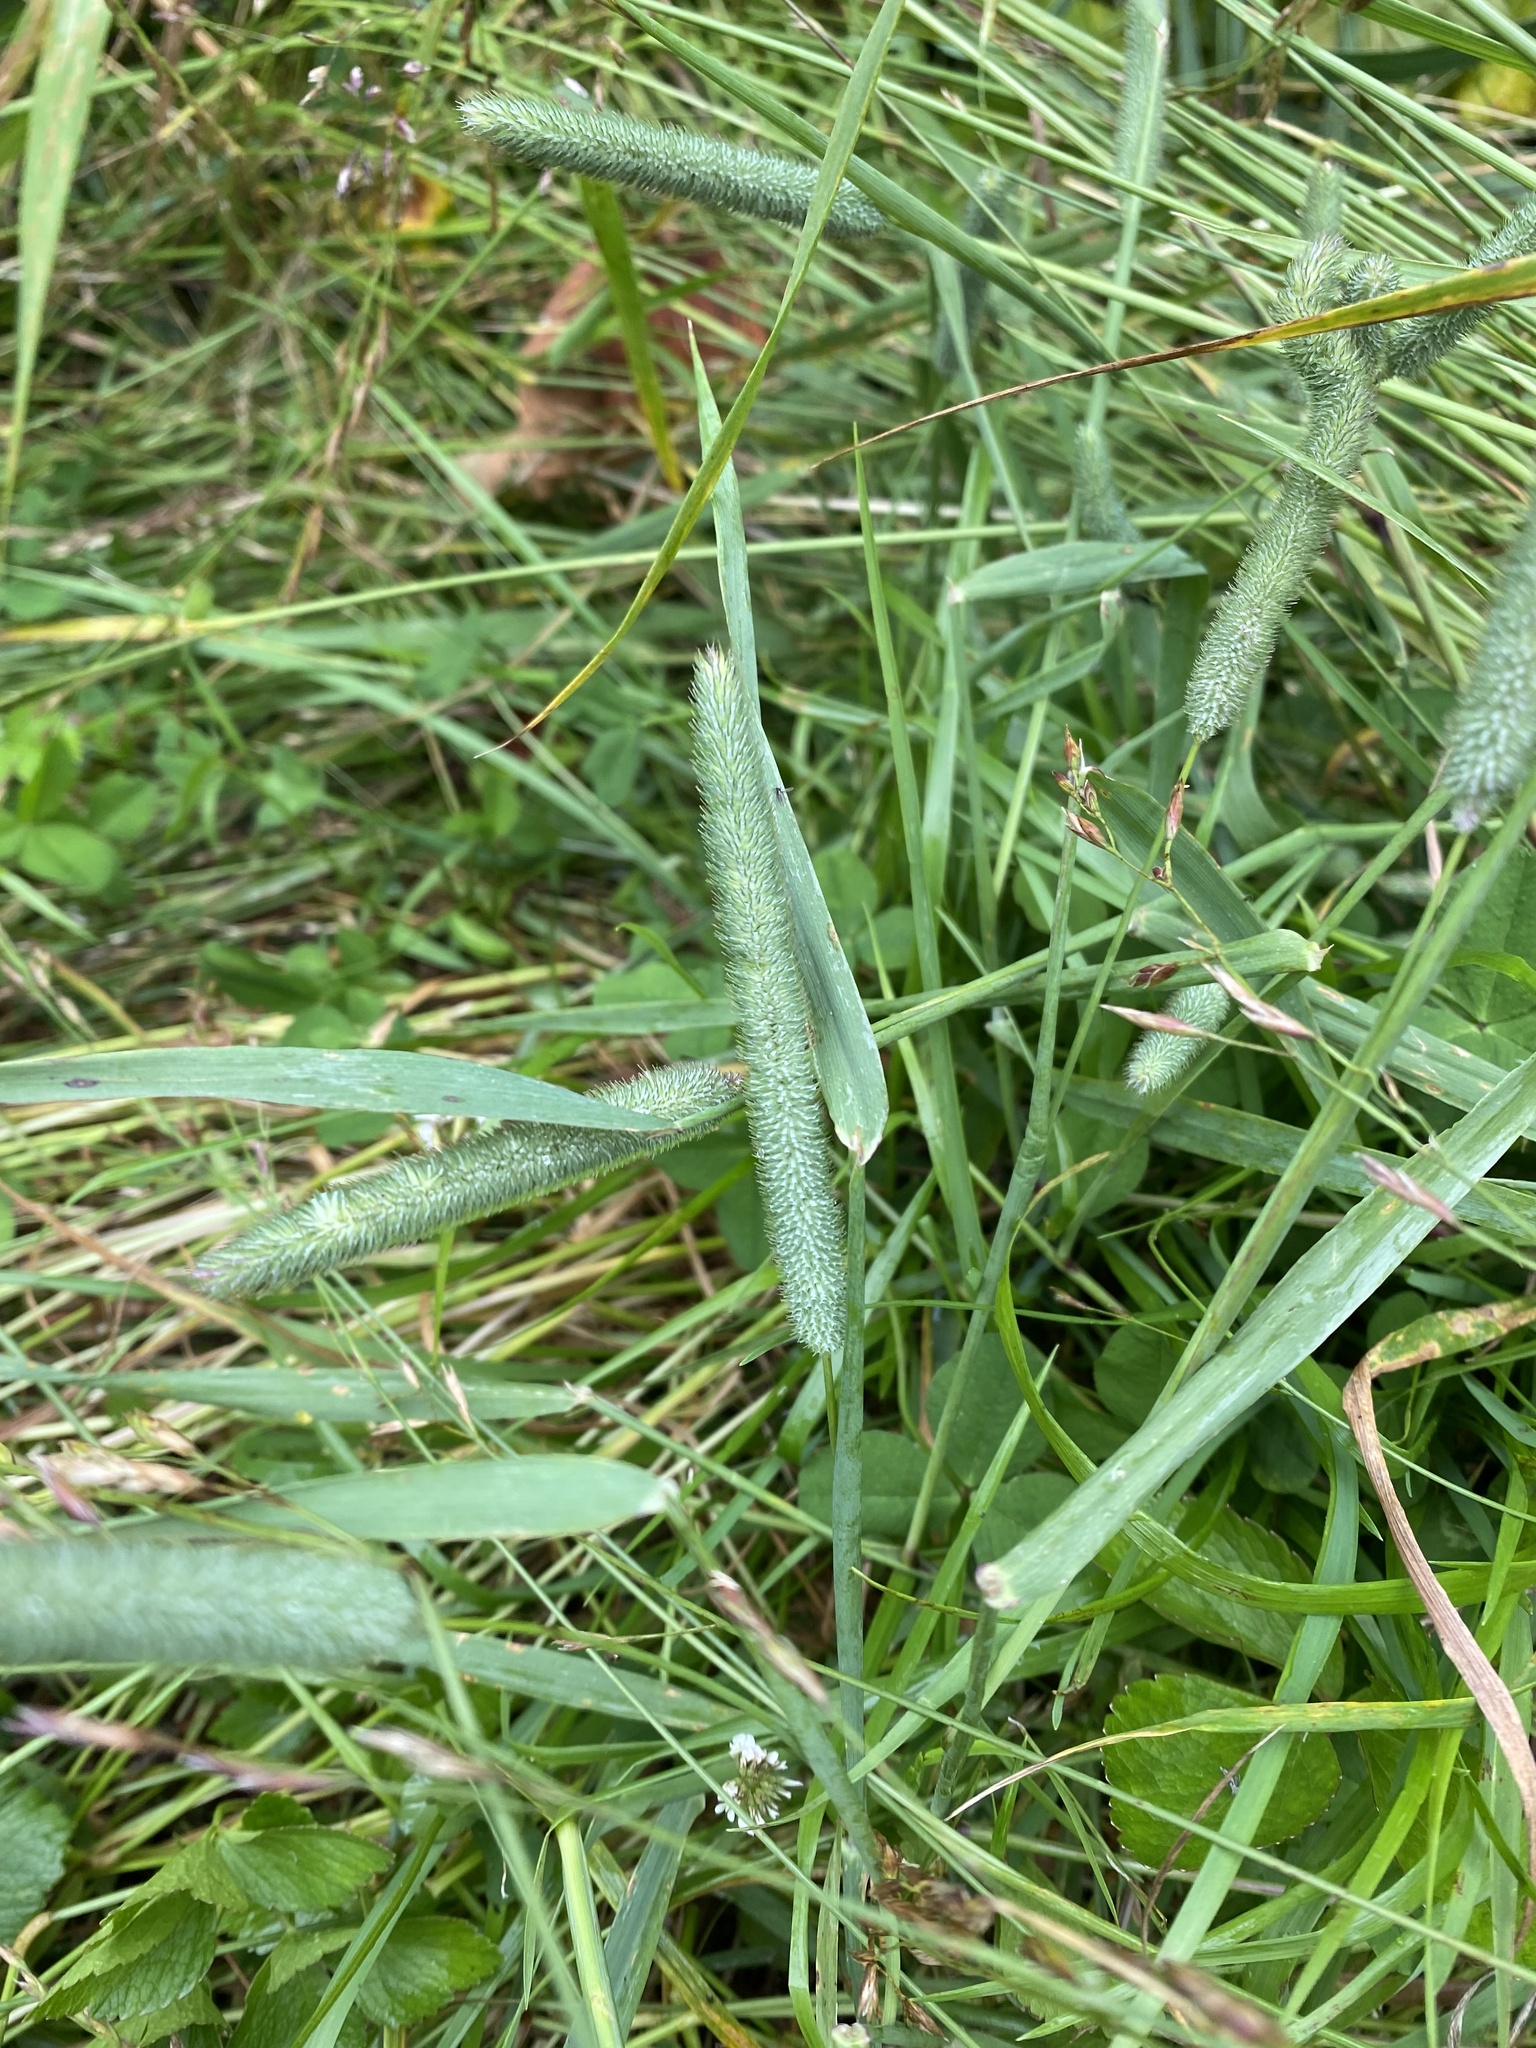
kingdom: Plantae
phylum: Tracheophyta
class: Liliopsida
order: Poales
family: Poaceae
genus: Phleum
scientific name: Phleum pratense
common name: Timothy grass
